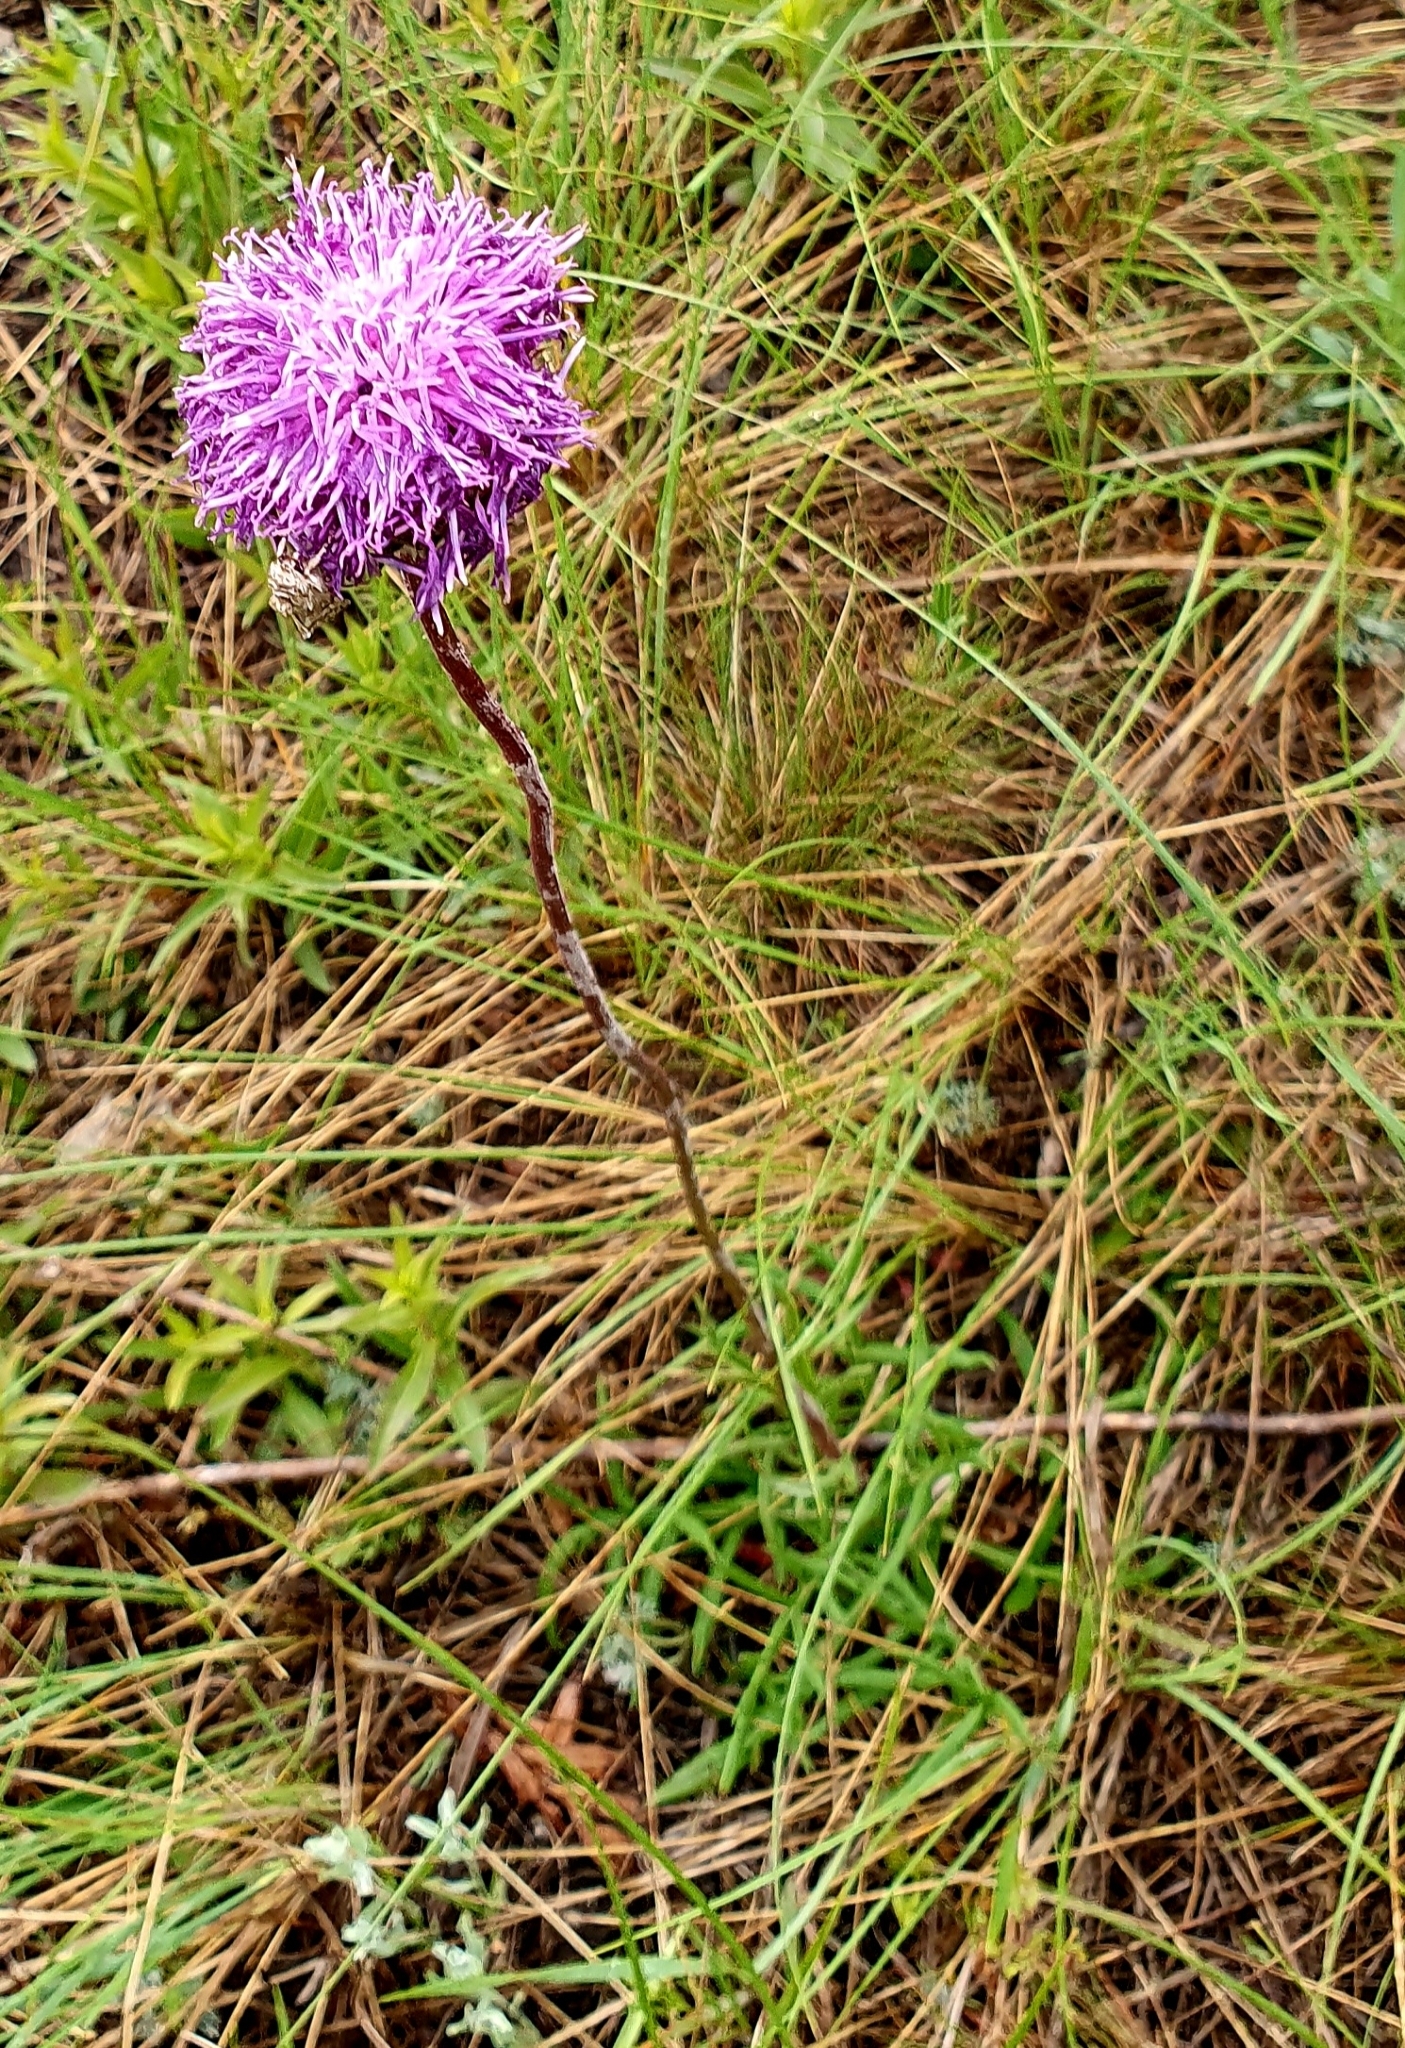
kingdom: Plantae
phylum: Tracheophyta
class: Magnoliopsida
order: Asterales
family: Asteraceae
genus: Jurinea
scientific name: Jurinea ledebourii
